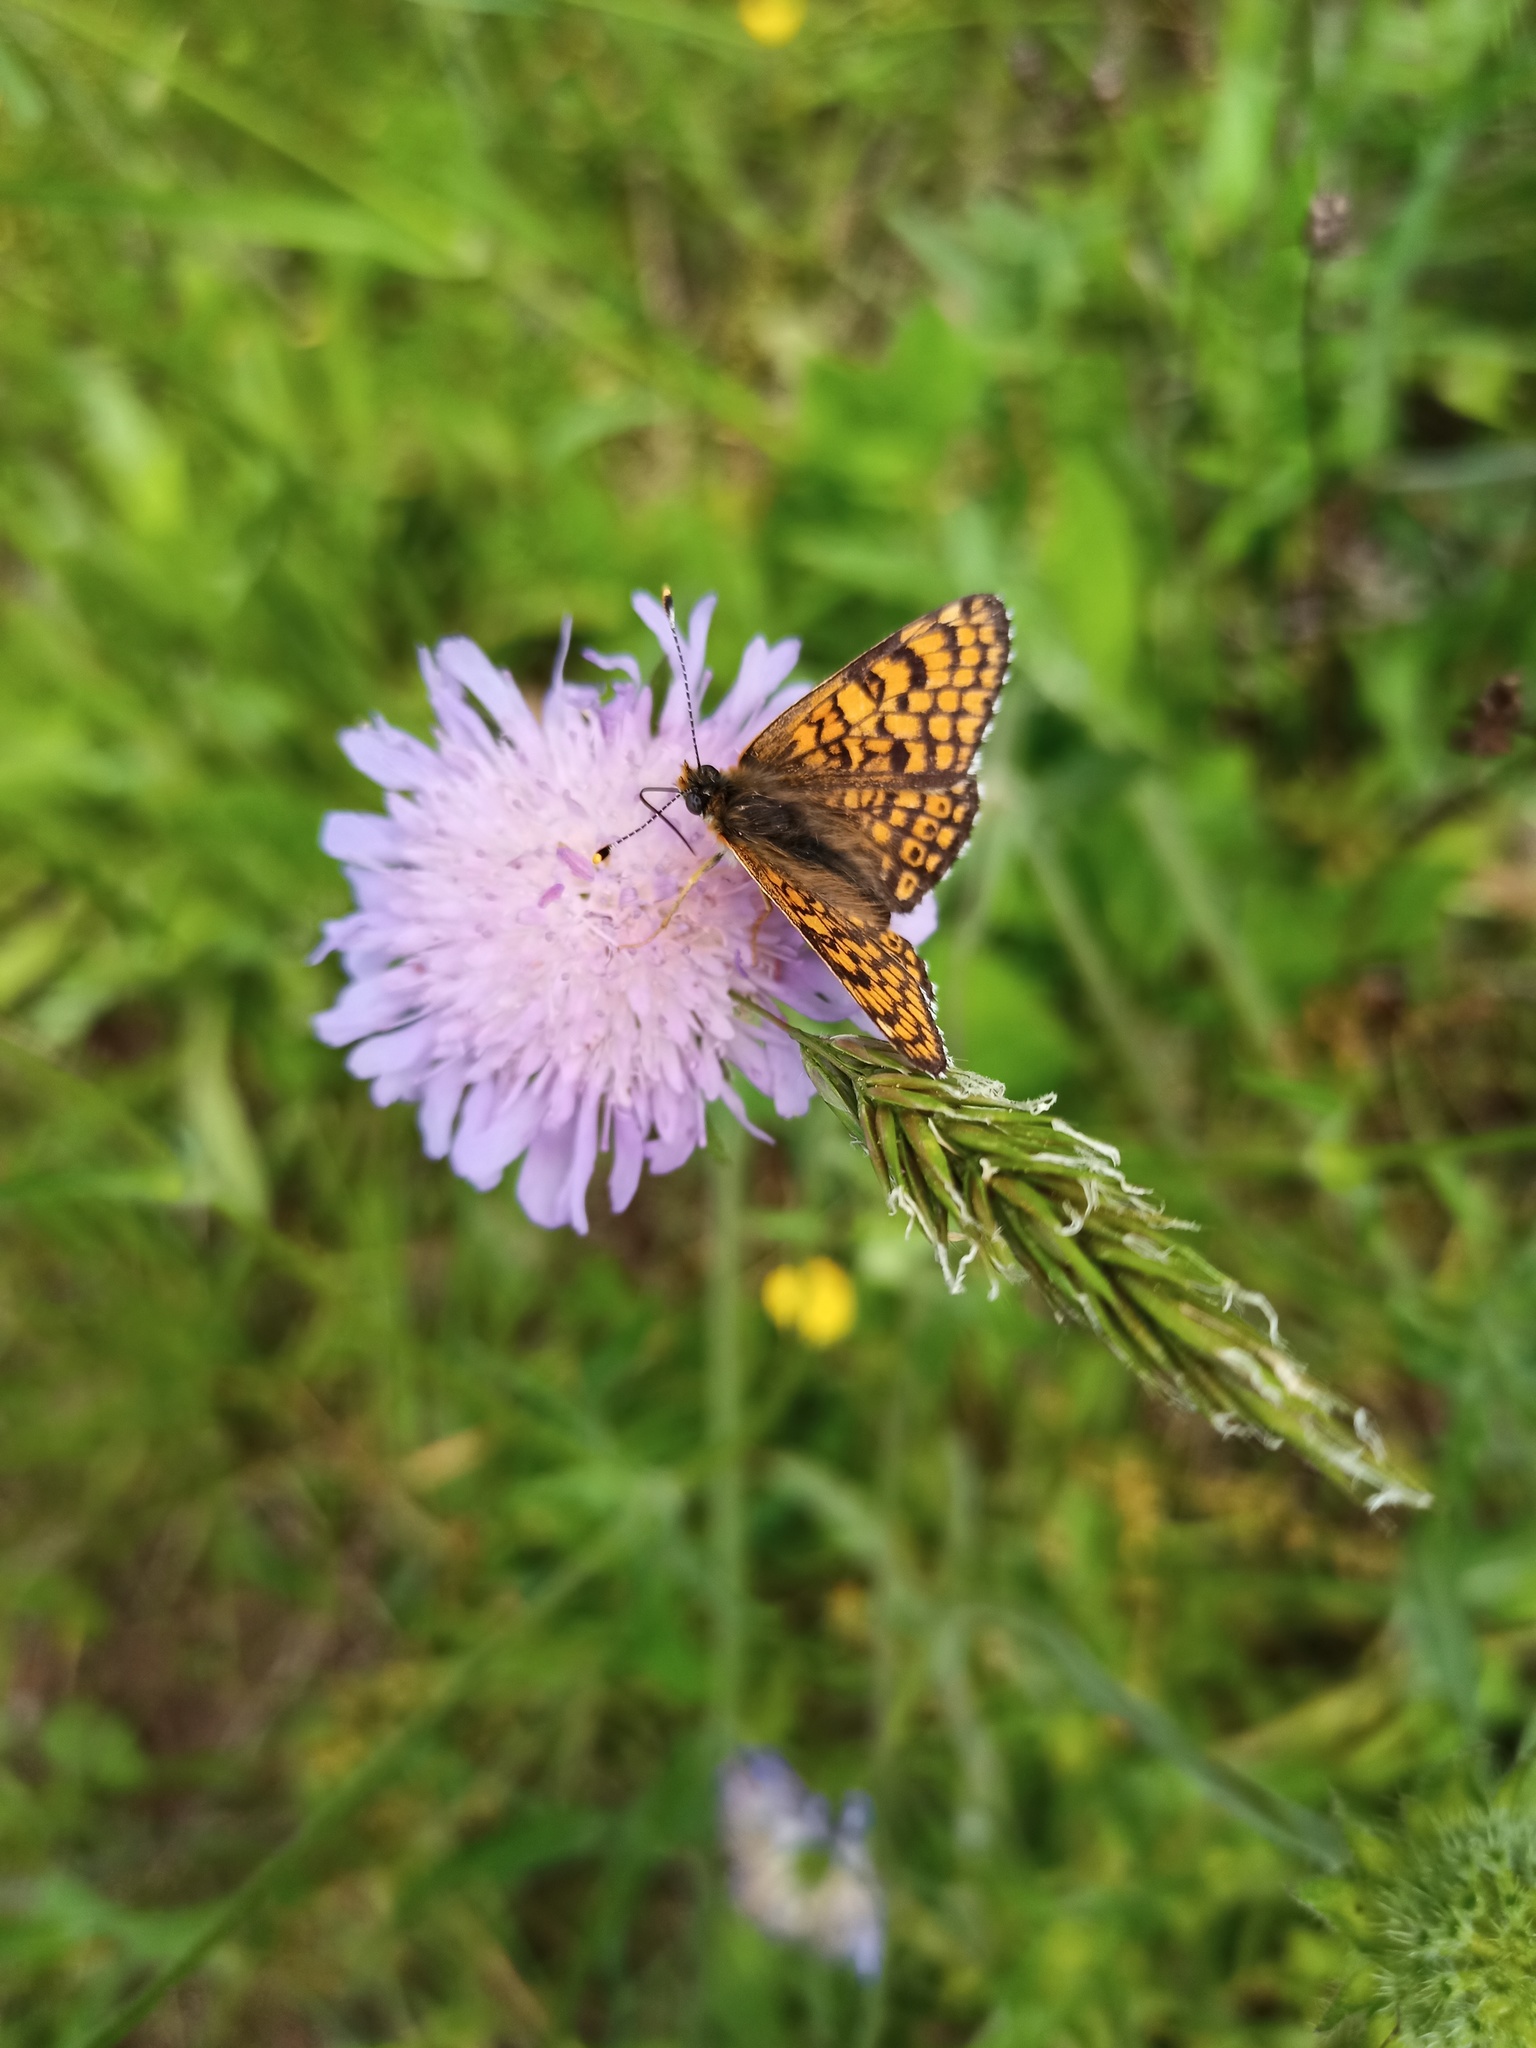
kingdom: Animalia
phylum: Arthropoda
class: Insecta
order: Lepidoptera
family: Nymphalidae
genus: Melitaea
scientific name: Melitaea cinxia
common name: Glanville fritillary
